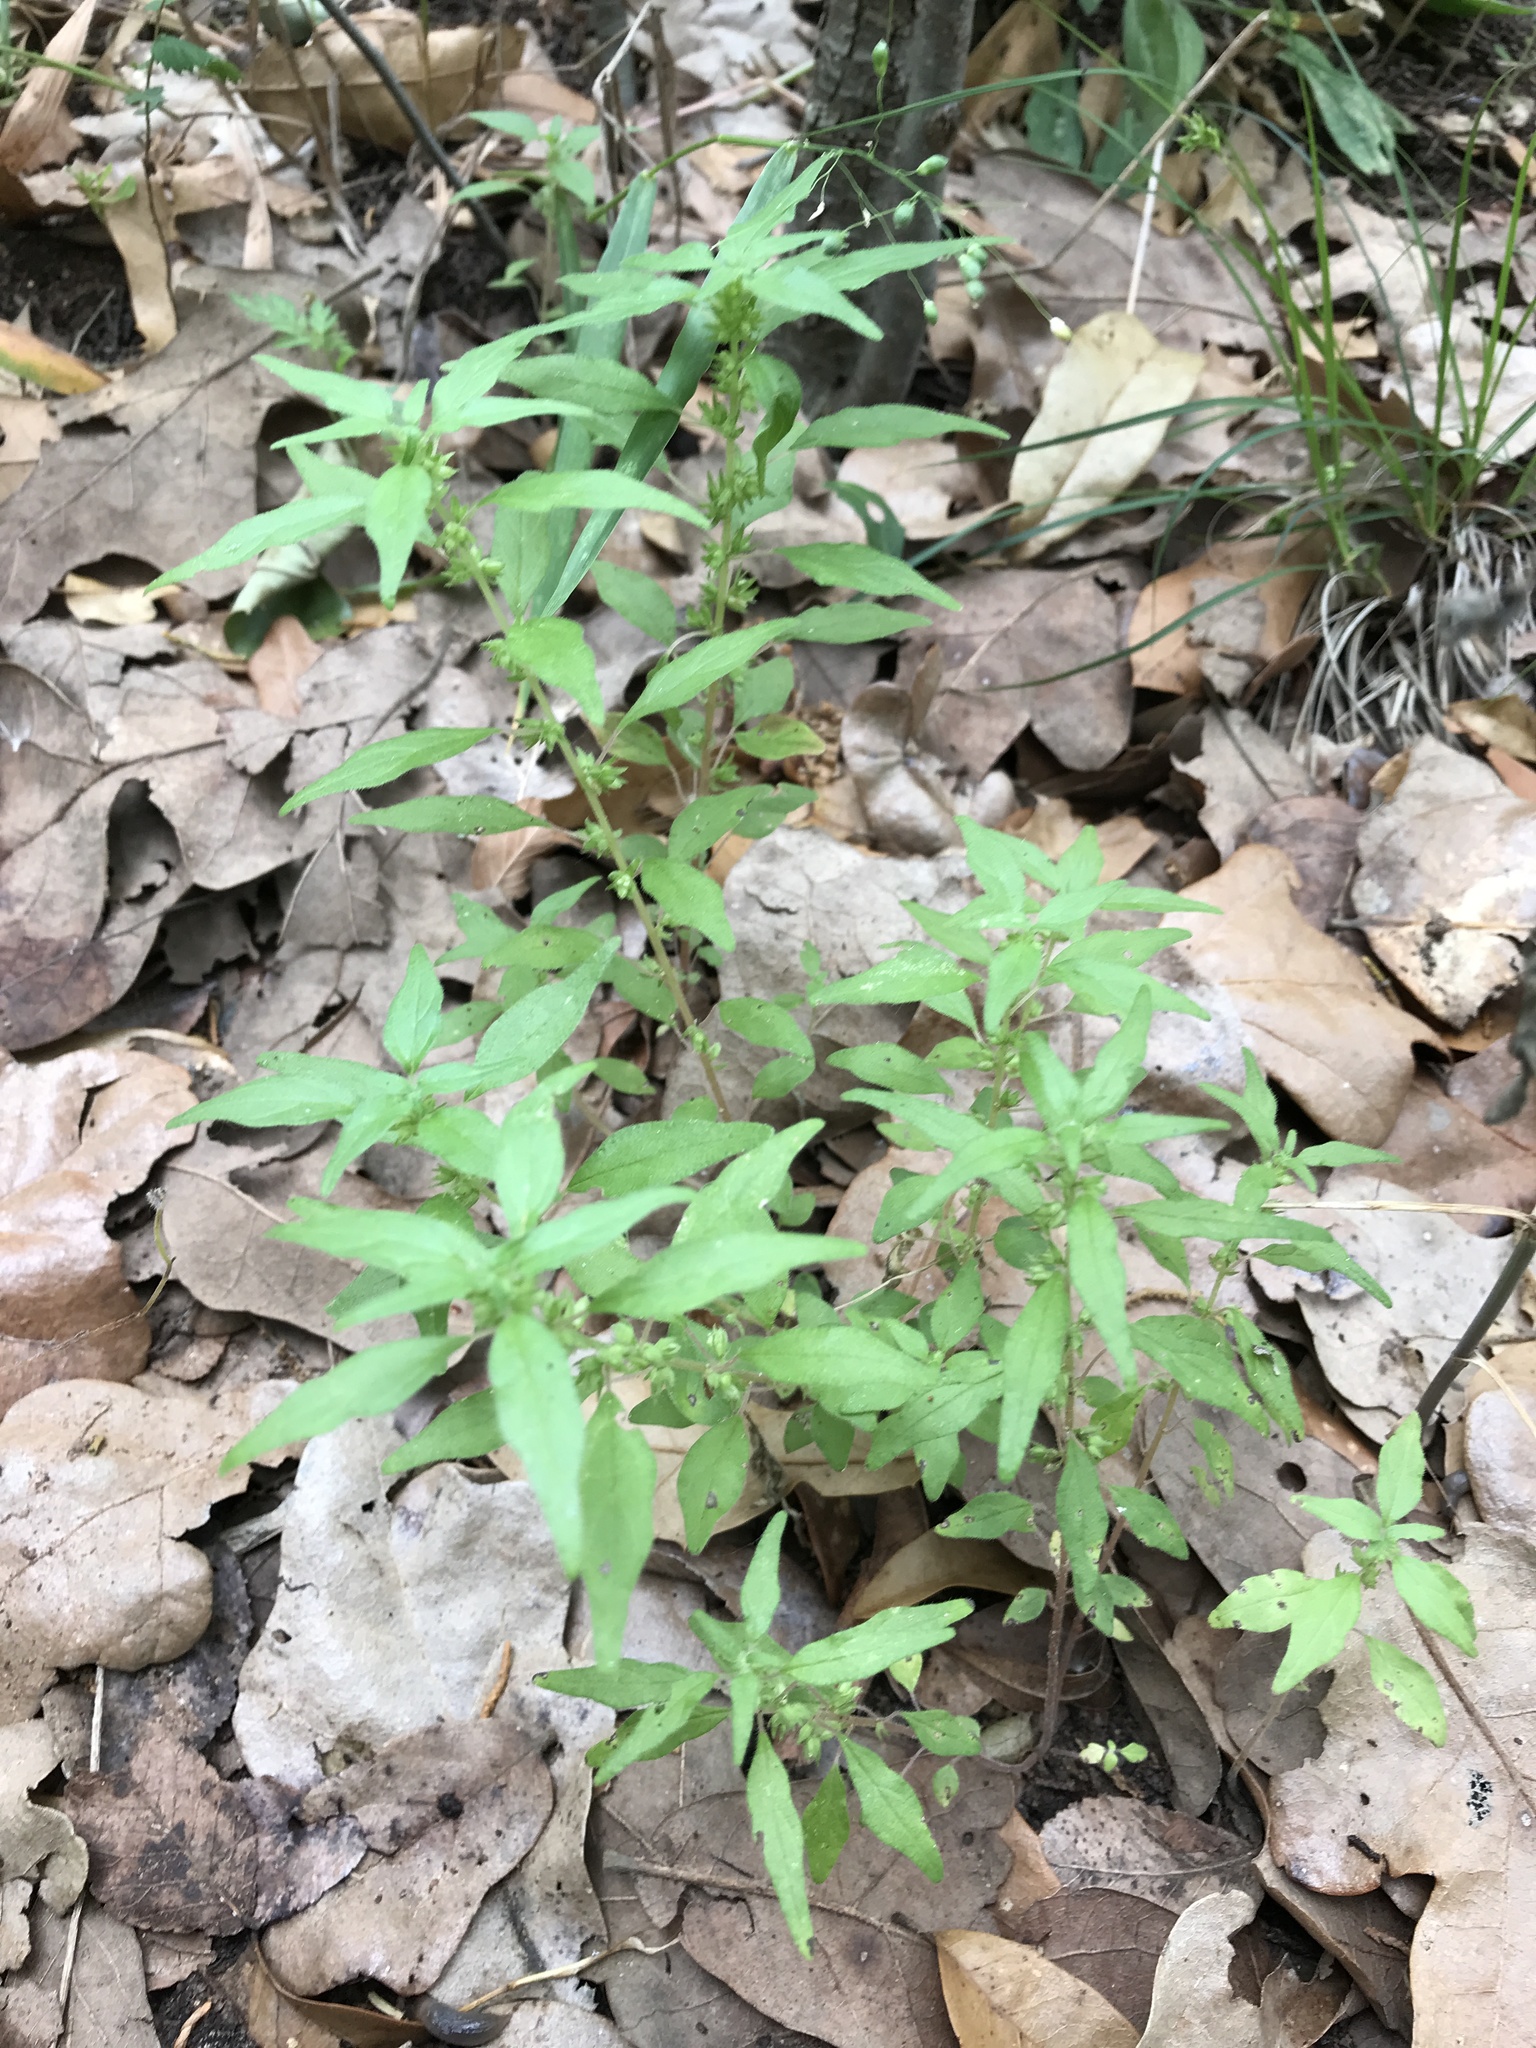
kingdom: Plantae
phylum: Tracheophyta
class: Magnoliopsida
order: Rosales
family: Urticaceae
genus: Parietaria
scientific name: Parietaria pensylvanica
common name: Pennsylvania pellitory
